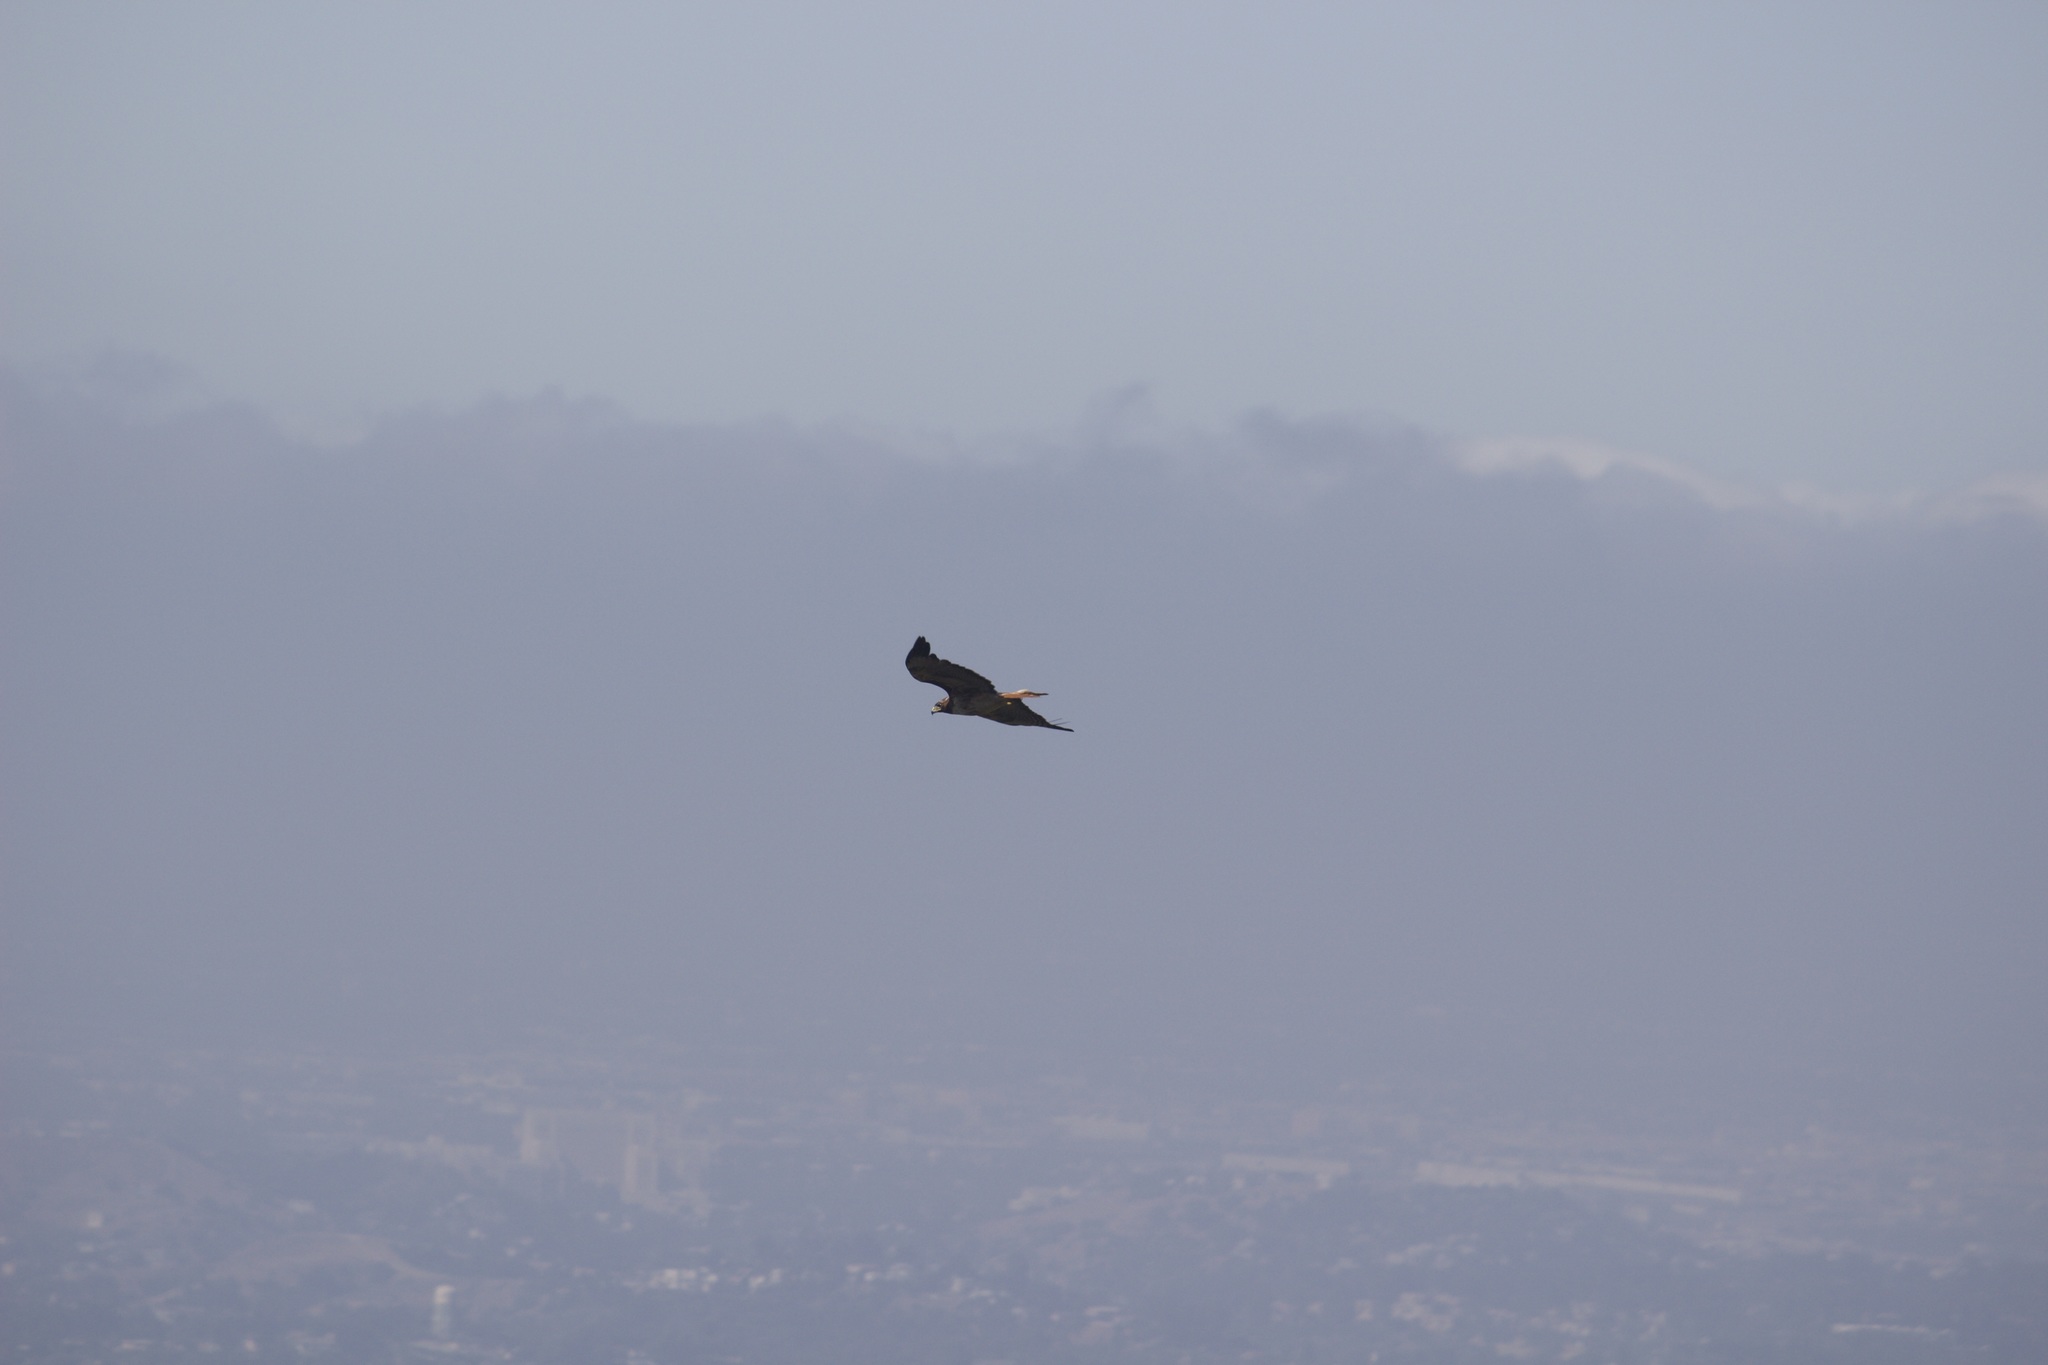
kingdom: Animalia
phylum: Chordata
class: Aves
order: Accipitriformes
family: Accipitridae
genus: Buteo
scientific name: Buteo jamaicensis
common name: Red-tailed hawk
